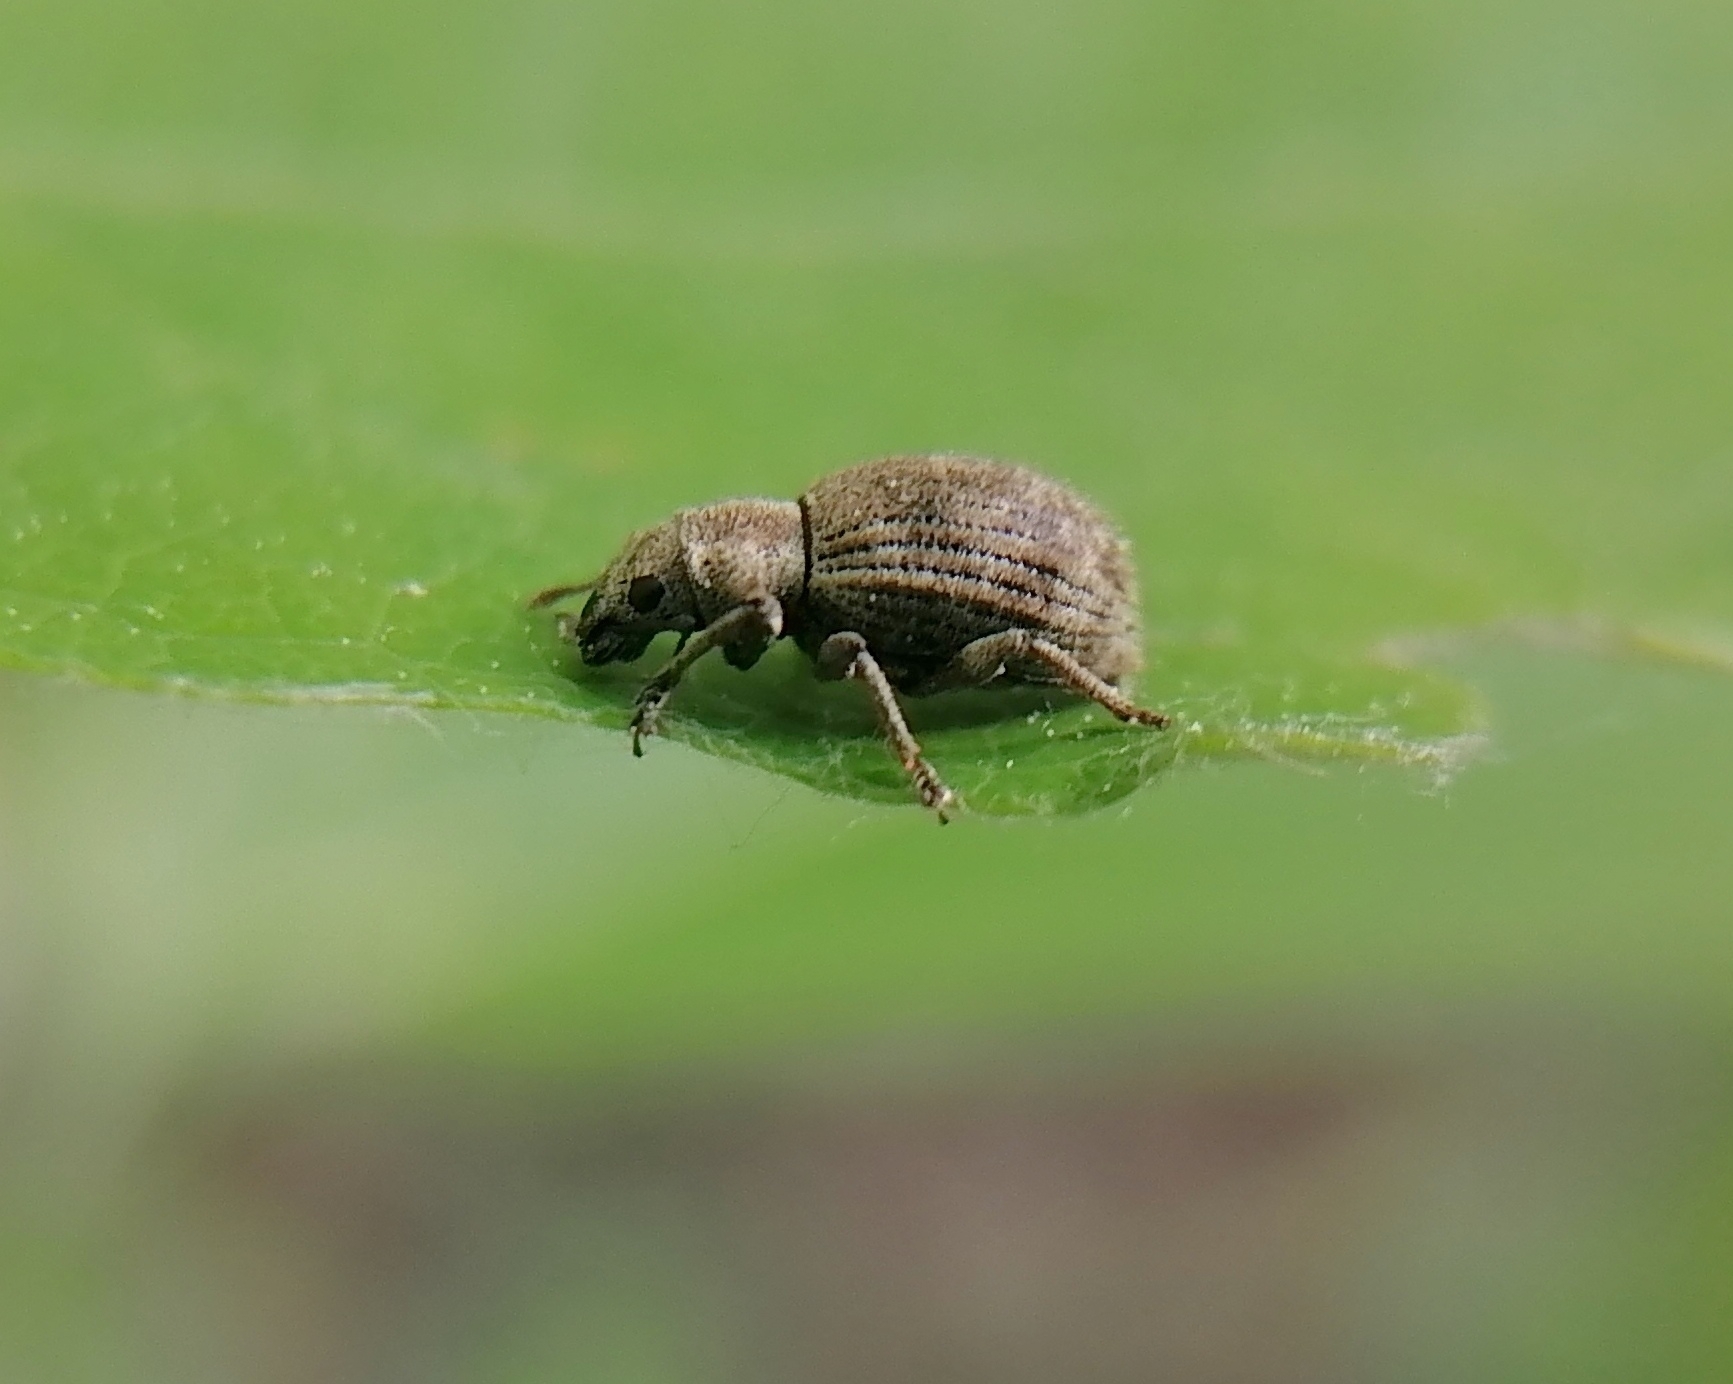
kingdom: Animalia
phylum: Arthropoda
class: Insecta
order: Coleoptera
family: Curculionidae
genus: Sciaphilus
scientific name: Sciaphilus asperatus
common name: Weevil
